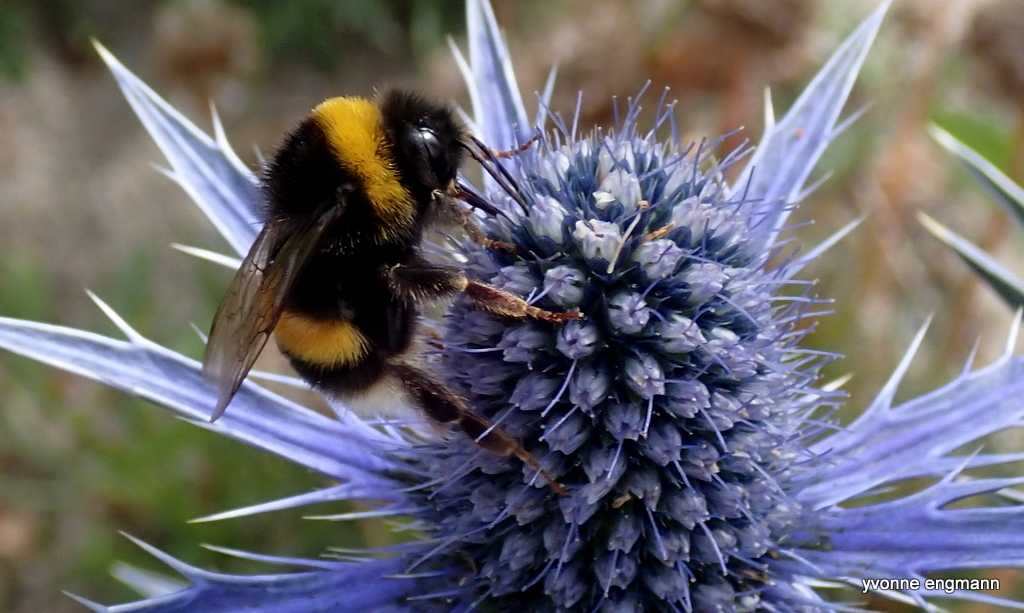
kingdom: Animalia
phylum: Arthropoda
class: Insecta
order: Hymenoptera
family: Apidae
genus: Bombus
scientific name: Bombus terrestris
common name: Buff-tailed bumblebee
